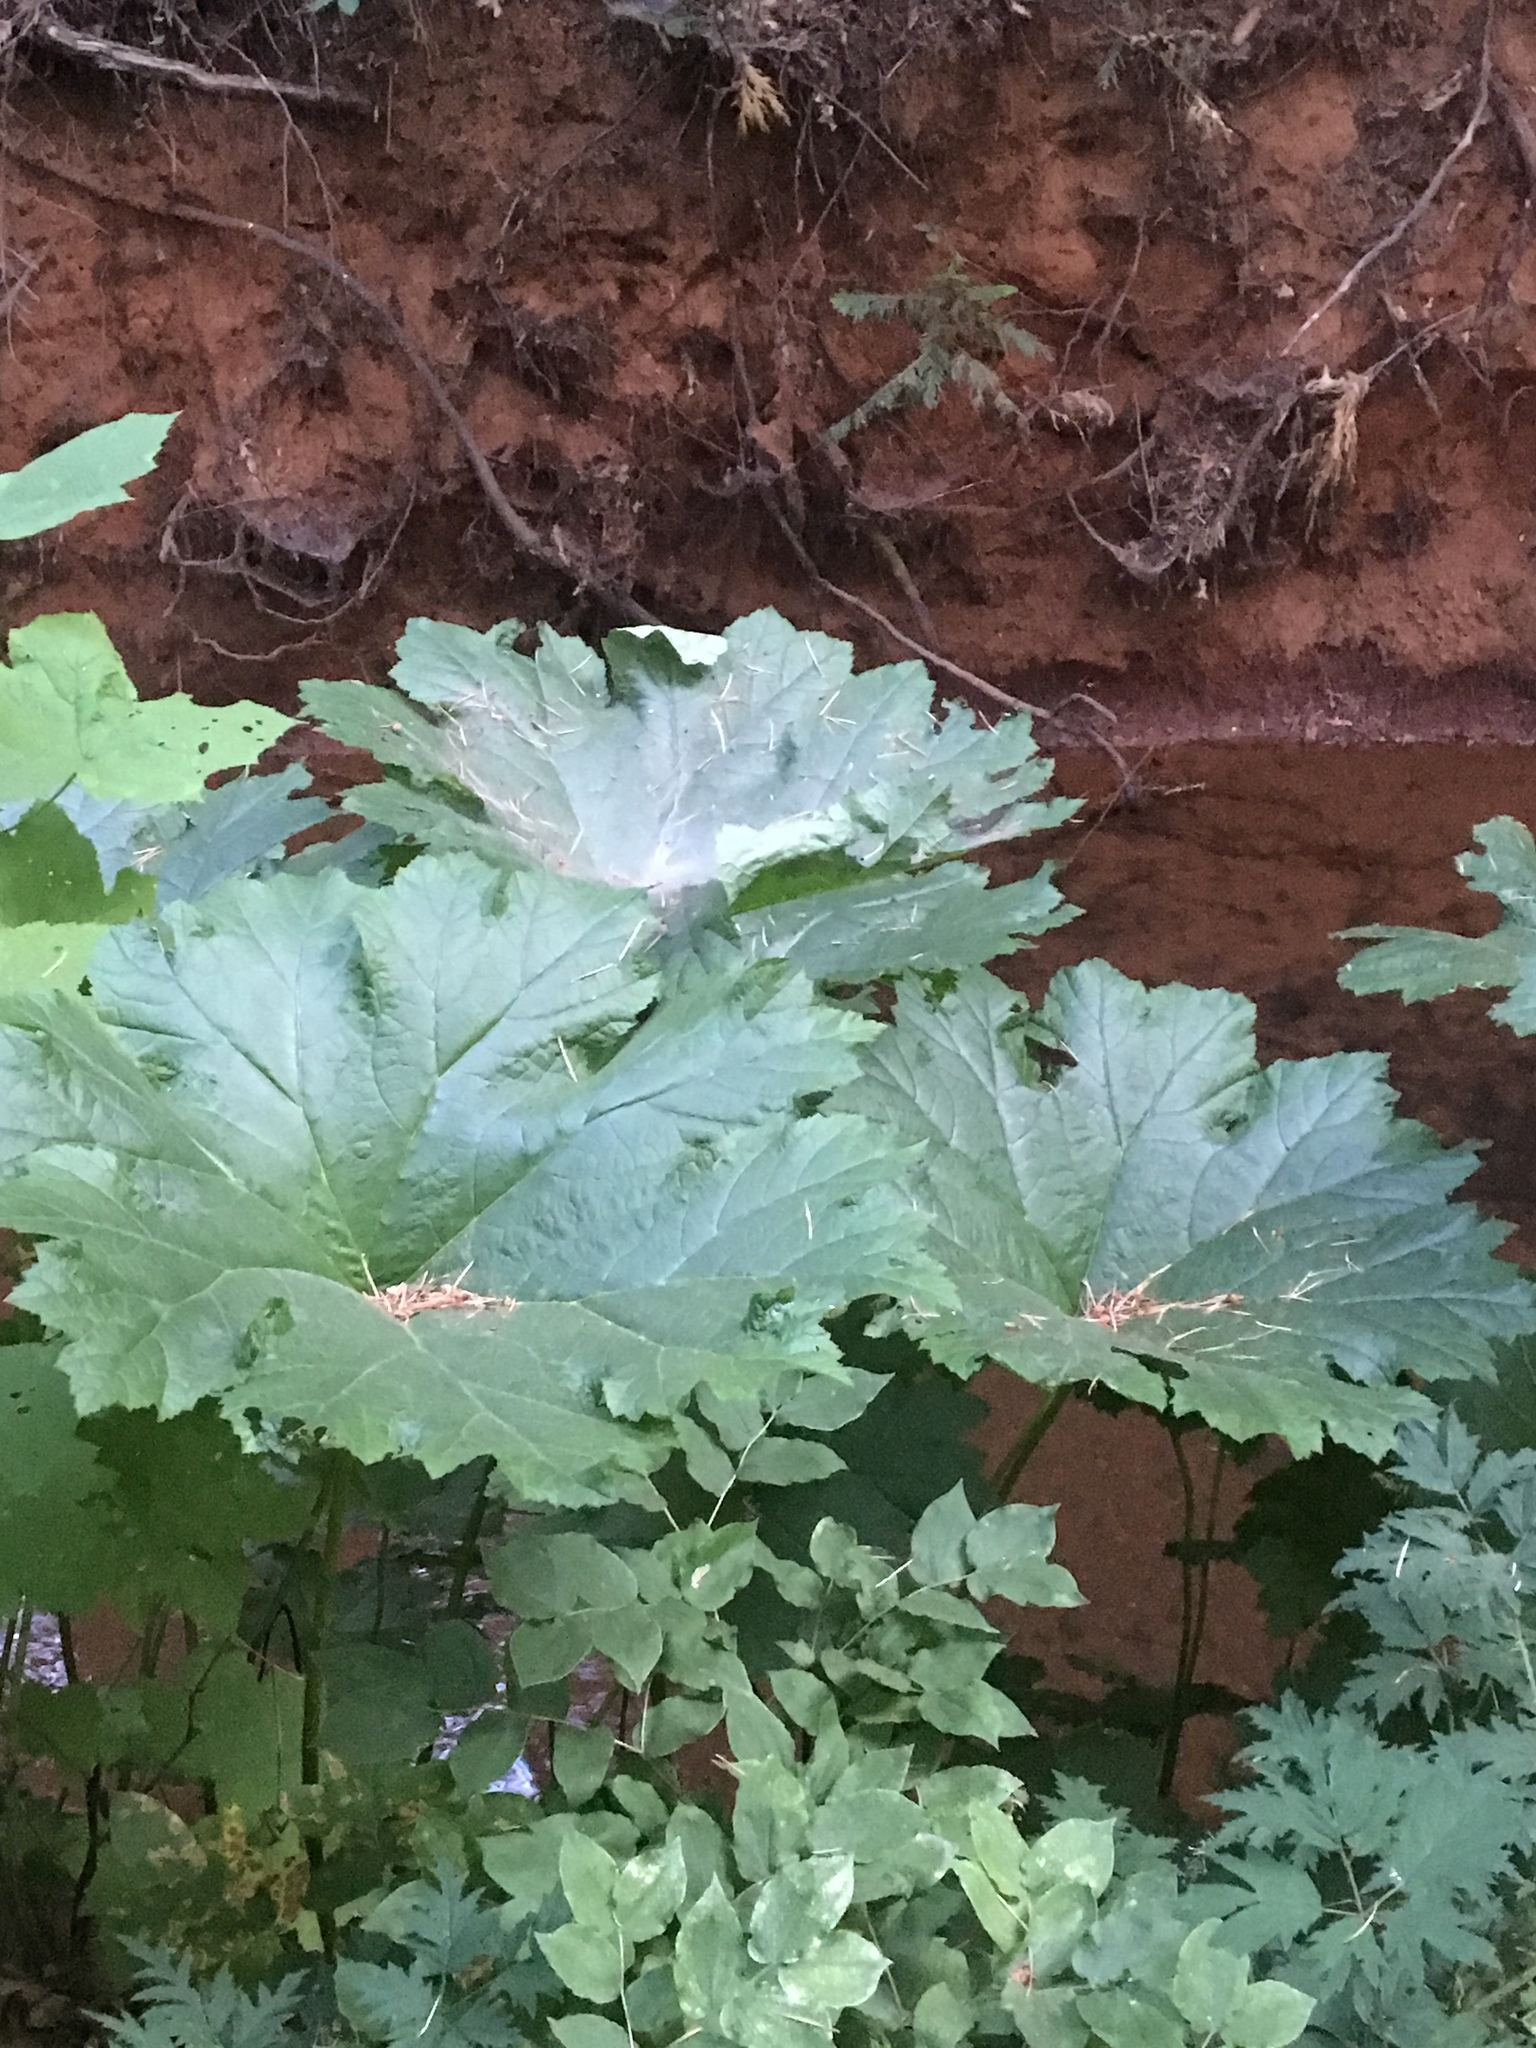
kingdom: Plantae
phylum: Tracheophyta
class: Magnoliopsida
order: Saxifragales
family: Saxifragaceae
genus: Darmera
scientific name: Darmera peltata
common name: Indian-rhubarb
